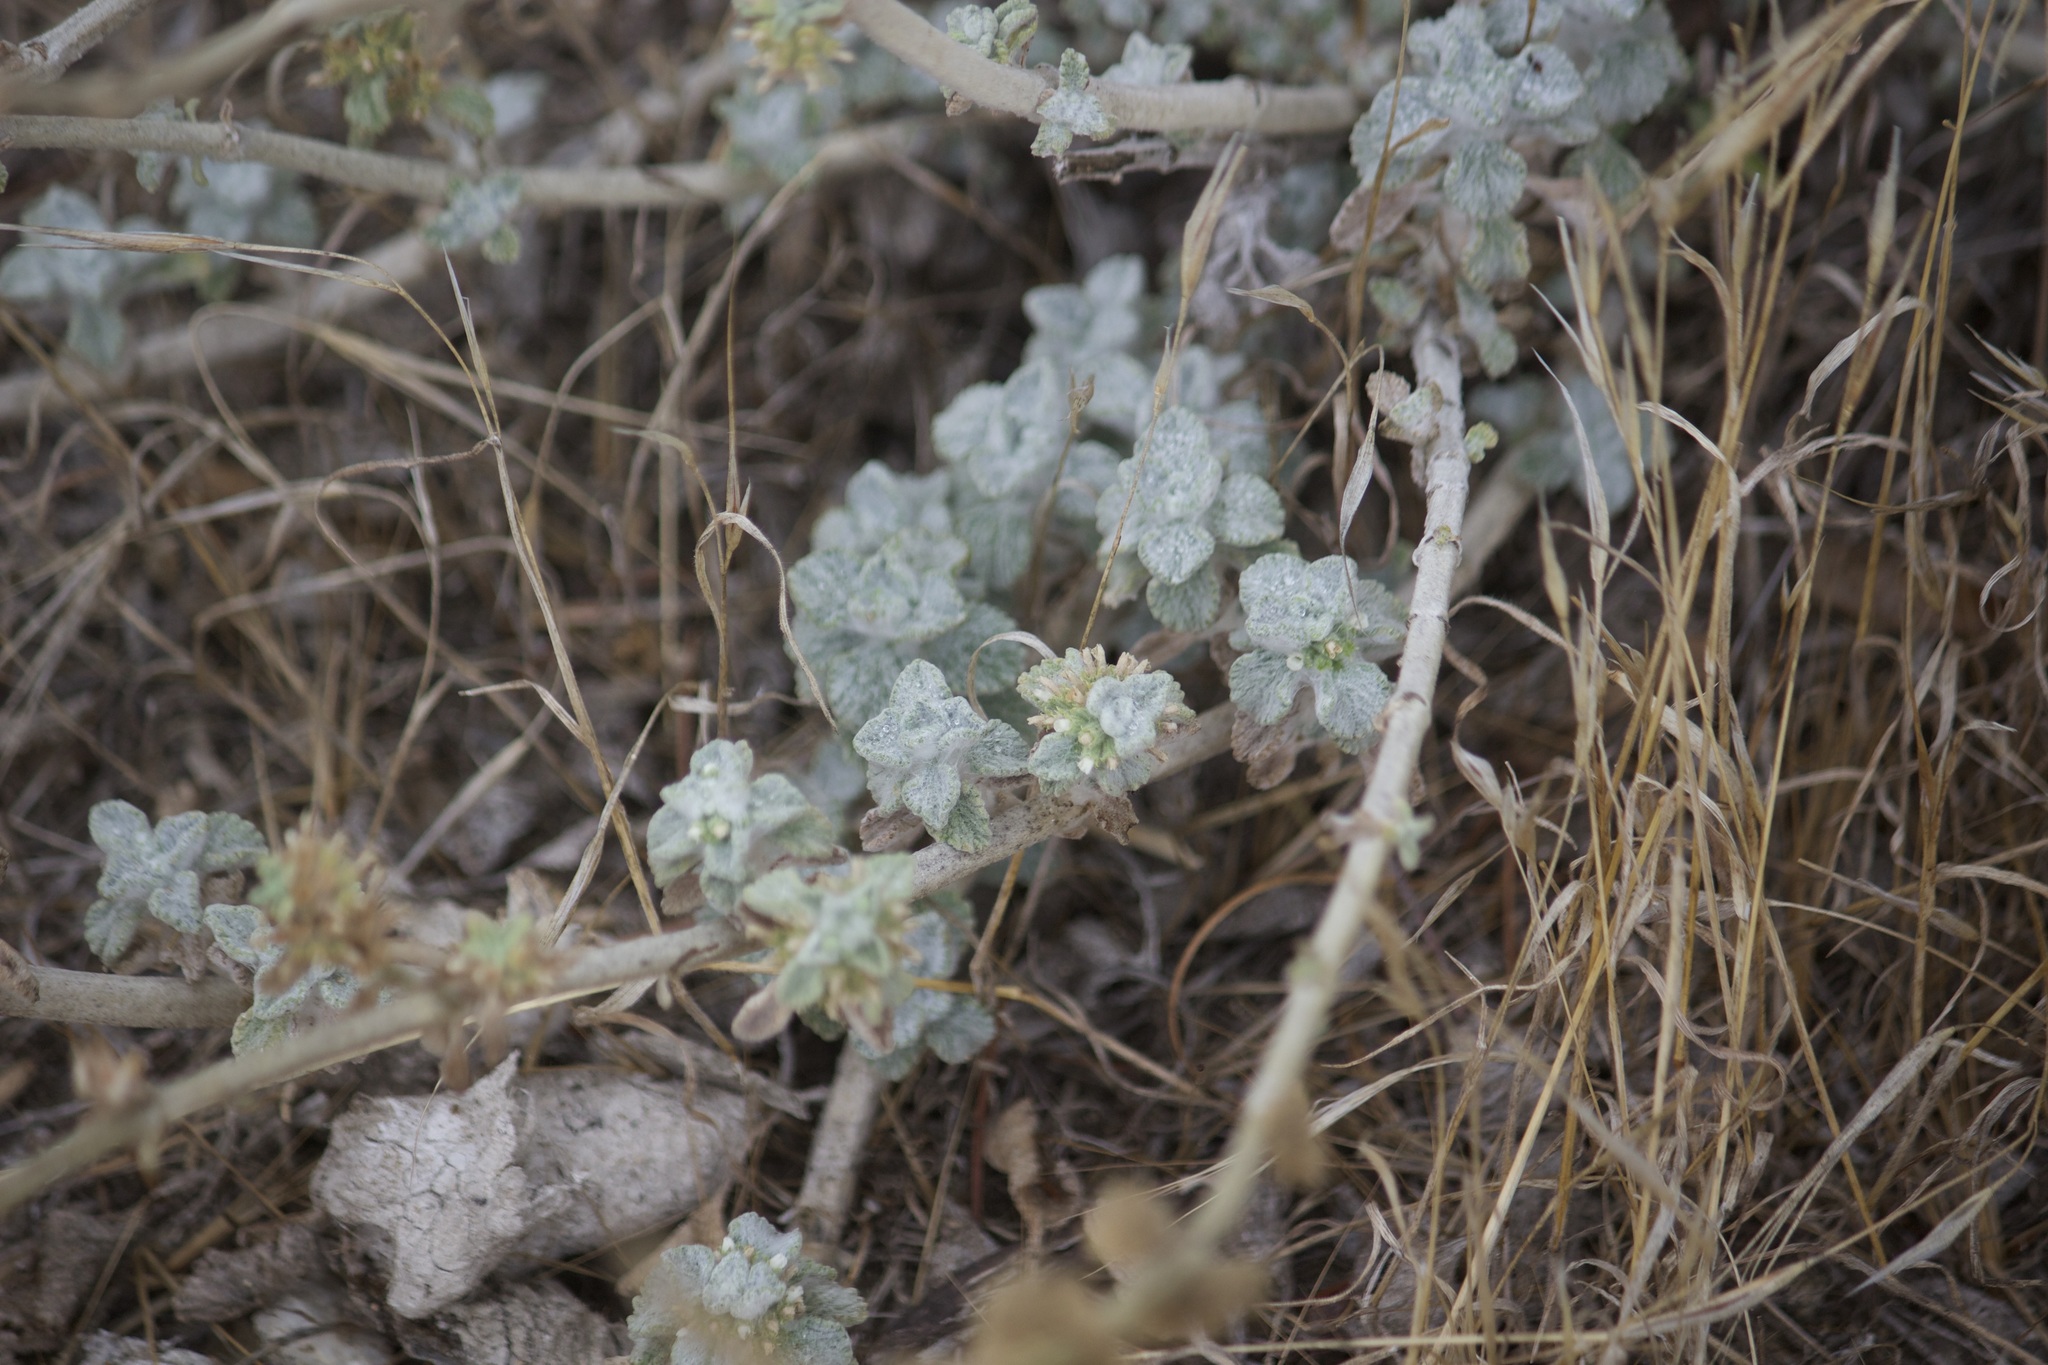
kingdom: Plantae
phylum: Tracheophyta
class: Magnoliopsida
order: Lamiales
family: Lamiaceae
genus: Marrubium
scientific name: Marrubium vulgare
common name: Horehound
